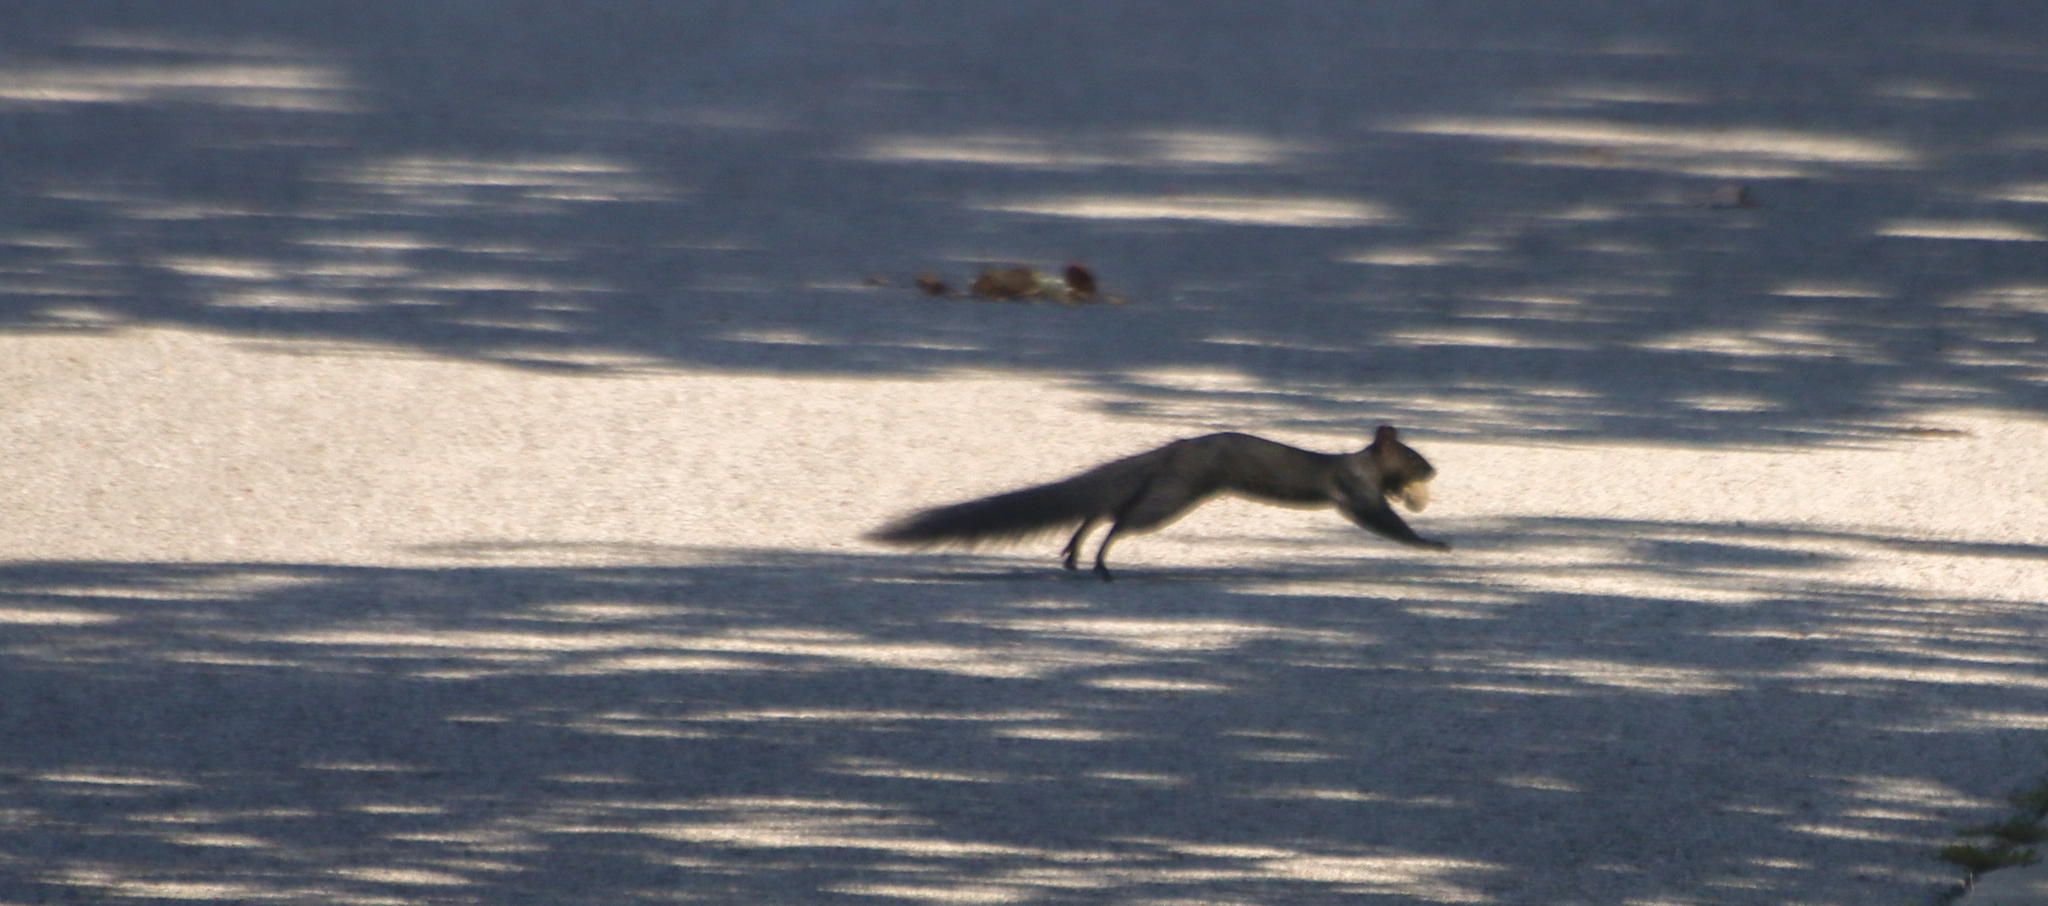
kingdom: Animalia
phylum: Chordata
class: Mammalia
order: Rodentia
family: Sciuridae
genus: Sciurus
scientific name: Sciurus carolinensis
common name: Eastern gray squirrel
